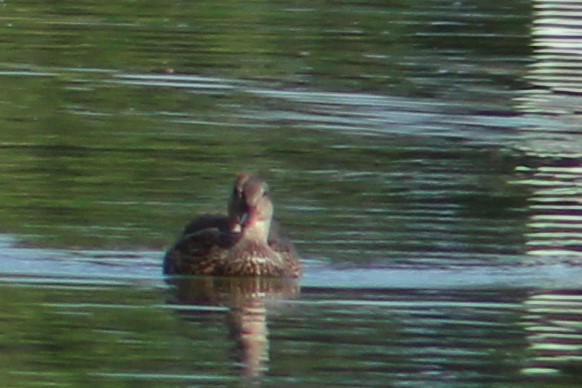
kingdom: Animalia
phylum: Chordata
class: Aves
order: Anseriformes
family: Anatidae
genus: Anas
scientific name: Anas diazi
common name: Mexican duck
